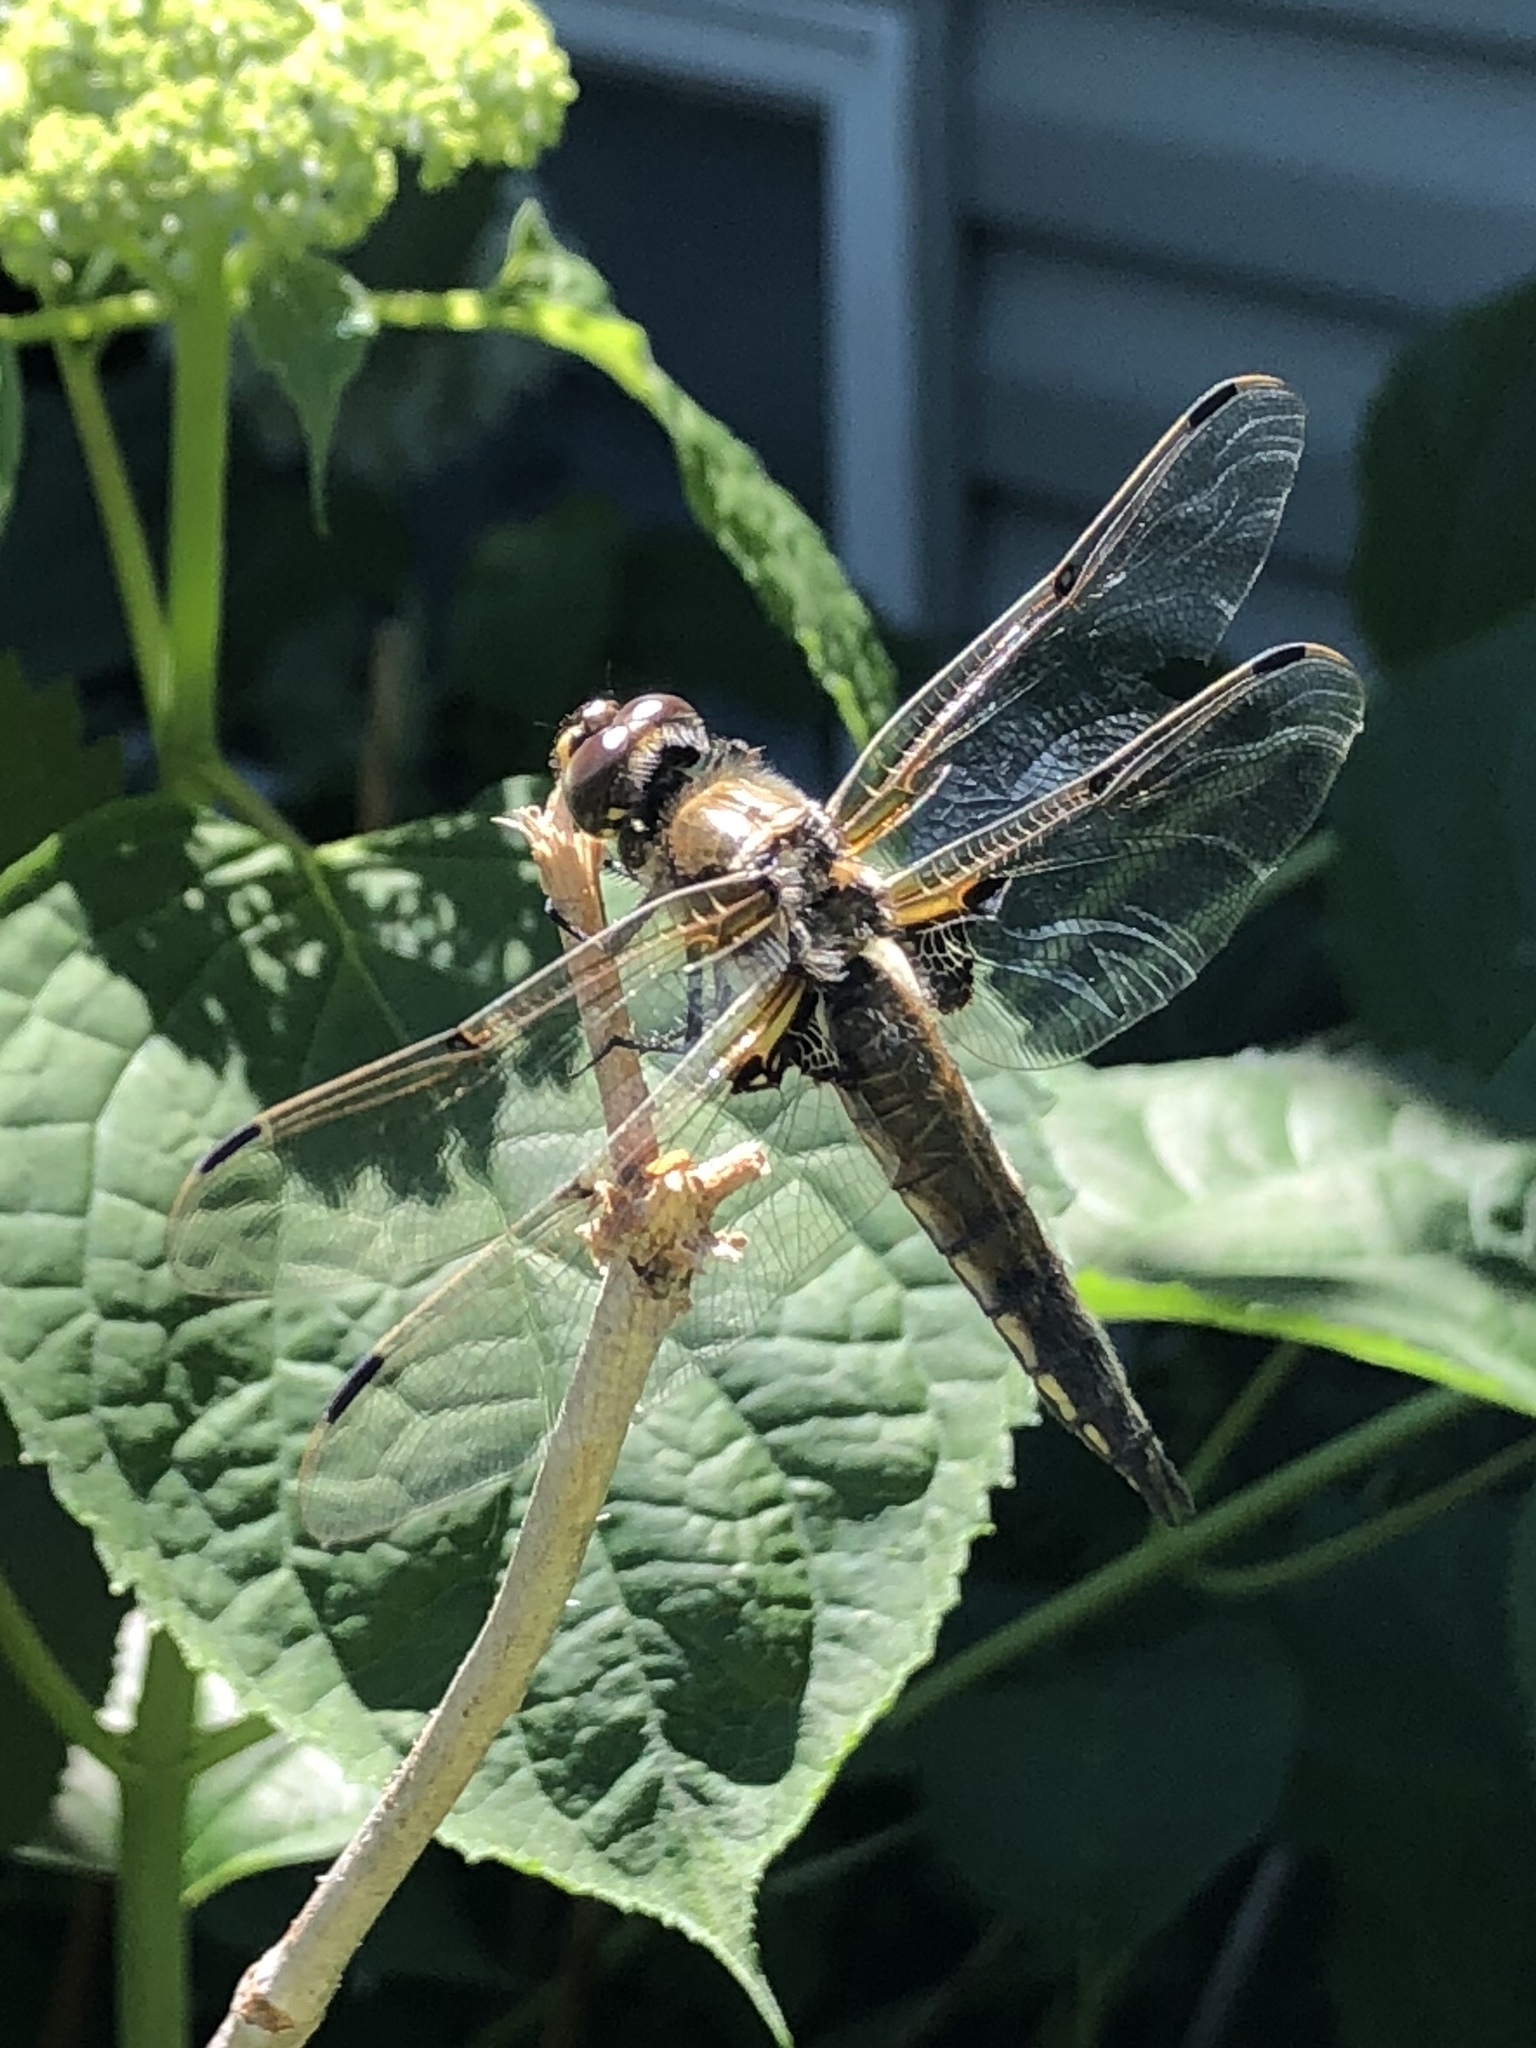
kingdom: Animalia
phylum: Arthropoda
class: Insecta
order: Odonata
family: Libellulidae
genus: Libellula
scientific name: Libellula quadrimaculata
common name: Four-spotted chaser
